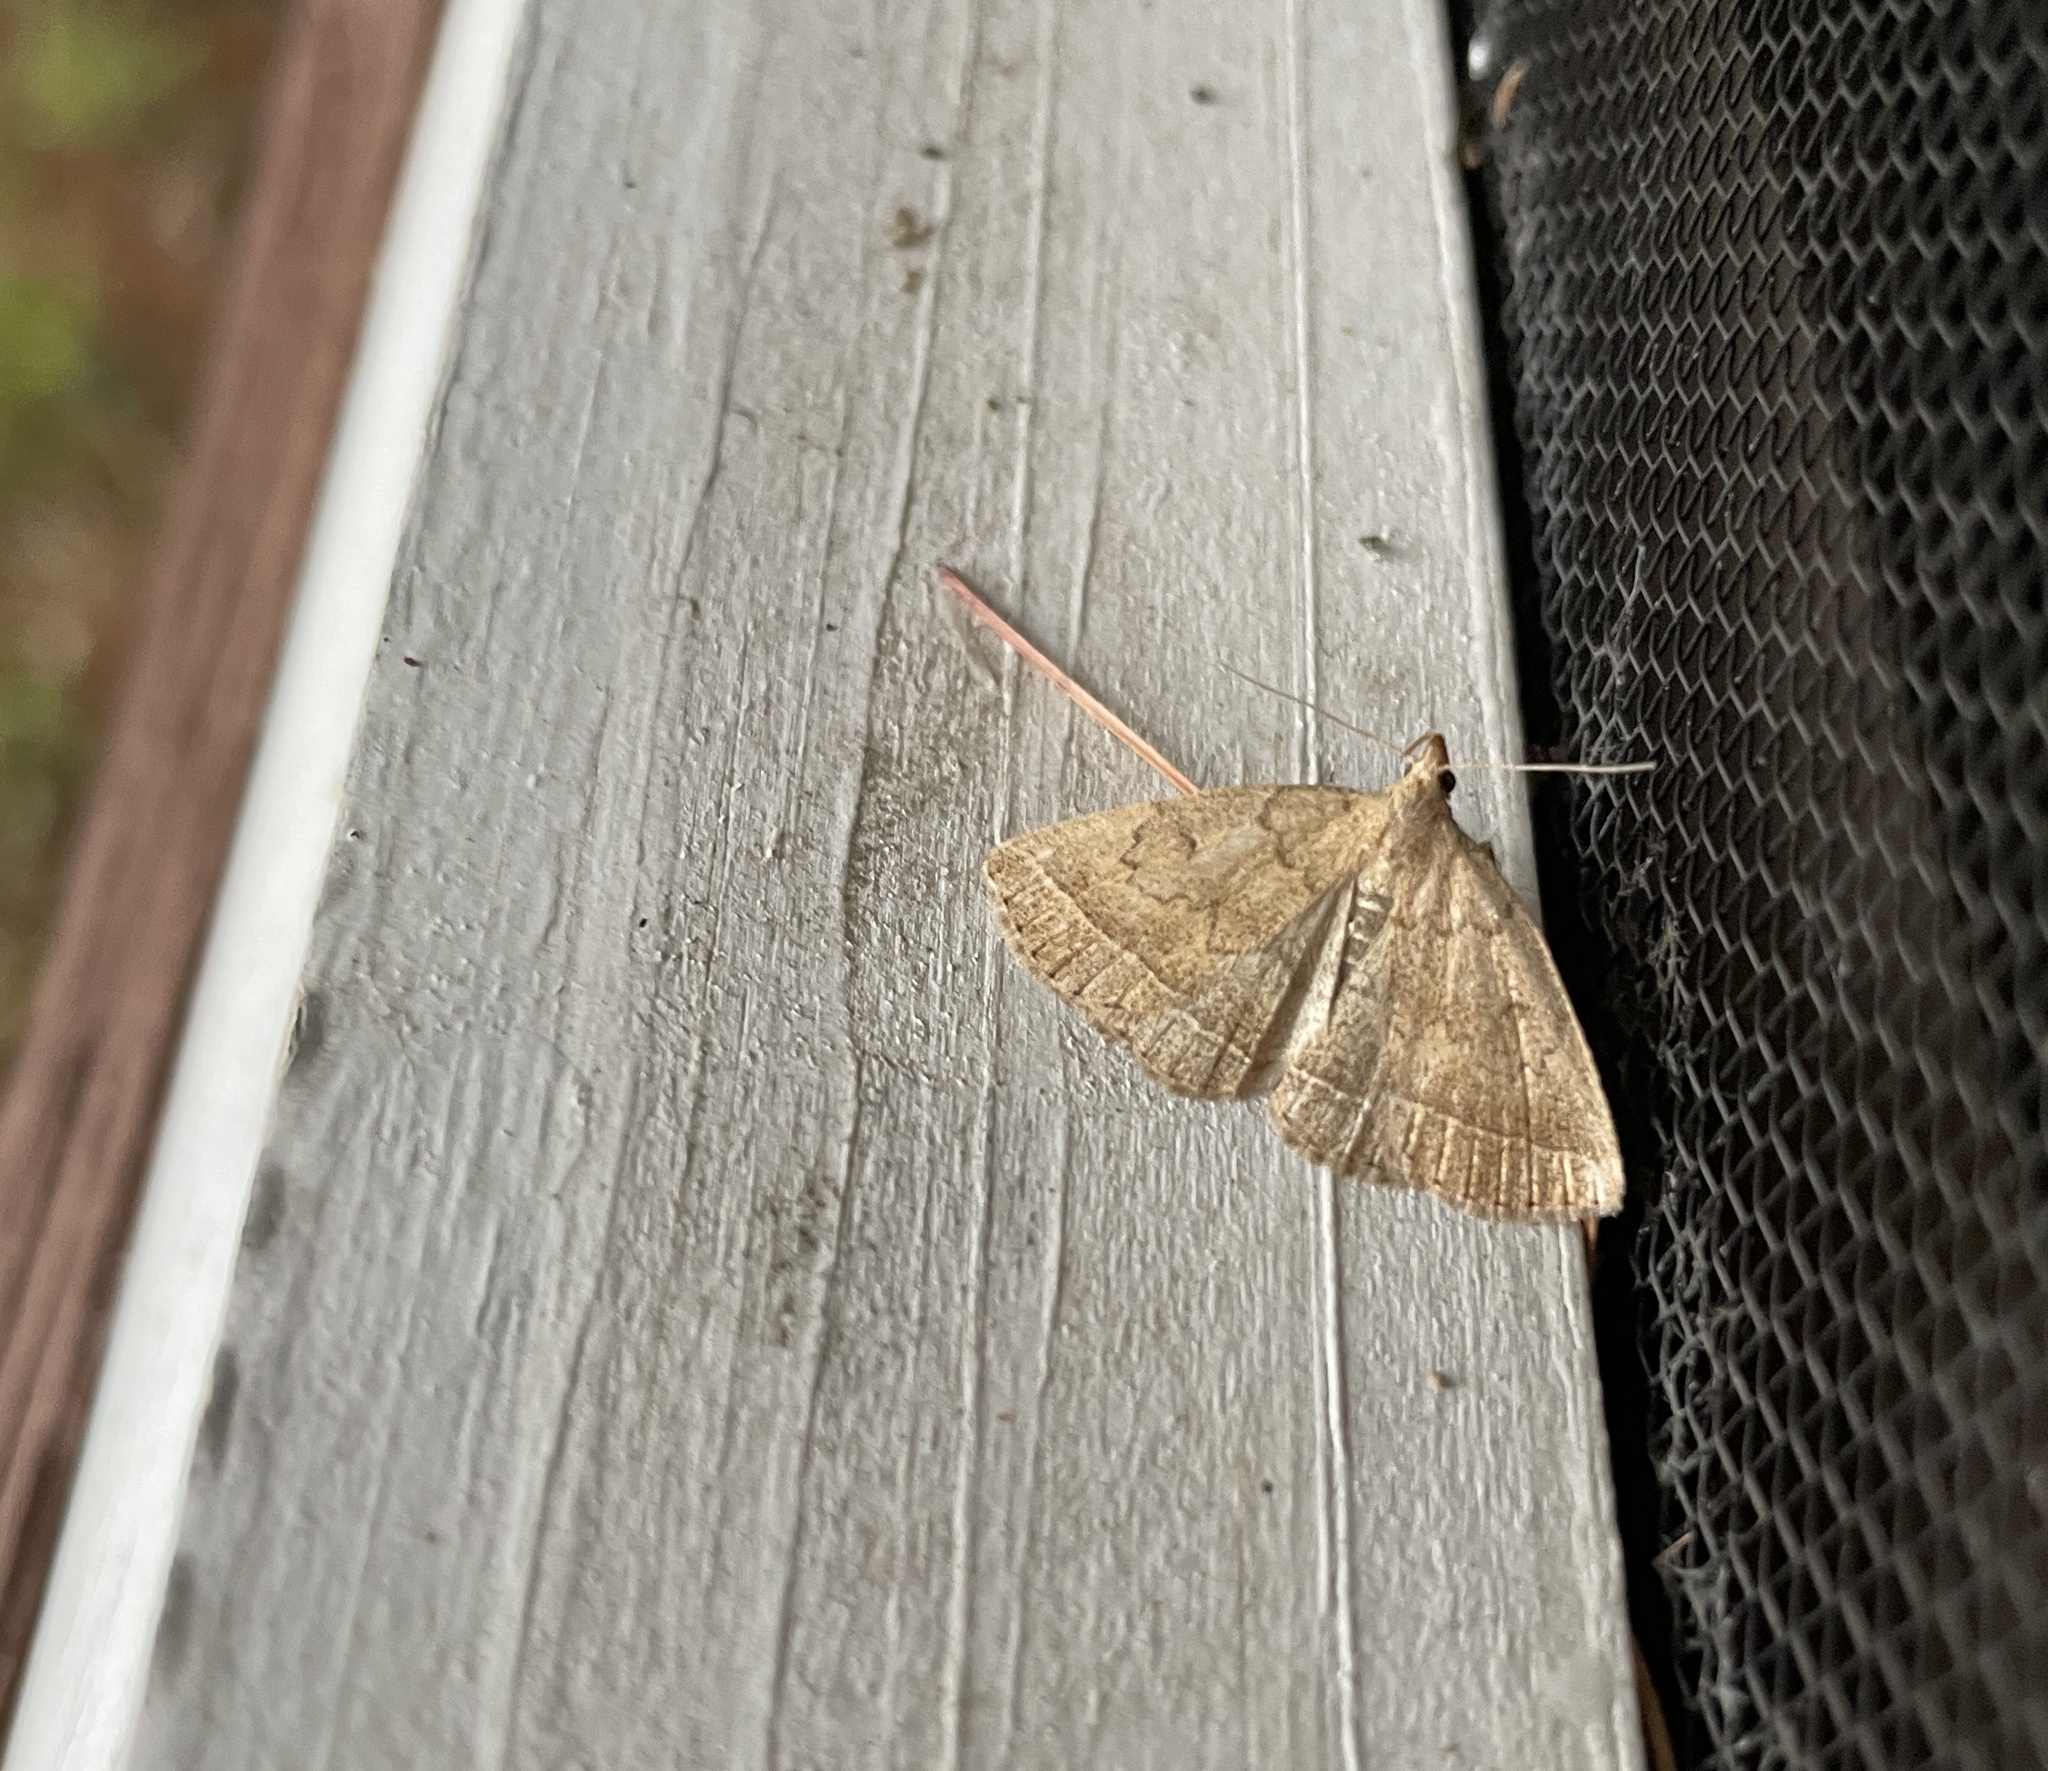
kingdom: Animalia
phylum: Arthropoda
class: Insecta
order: Lepidoptera
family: Erebidae
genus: Zanclognatha
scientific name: Zanclognatha jacchusalis
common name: Yellowish zanclognatha
